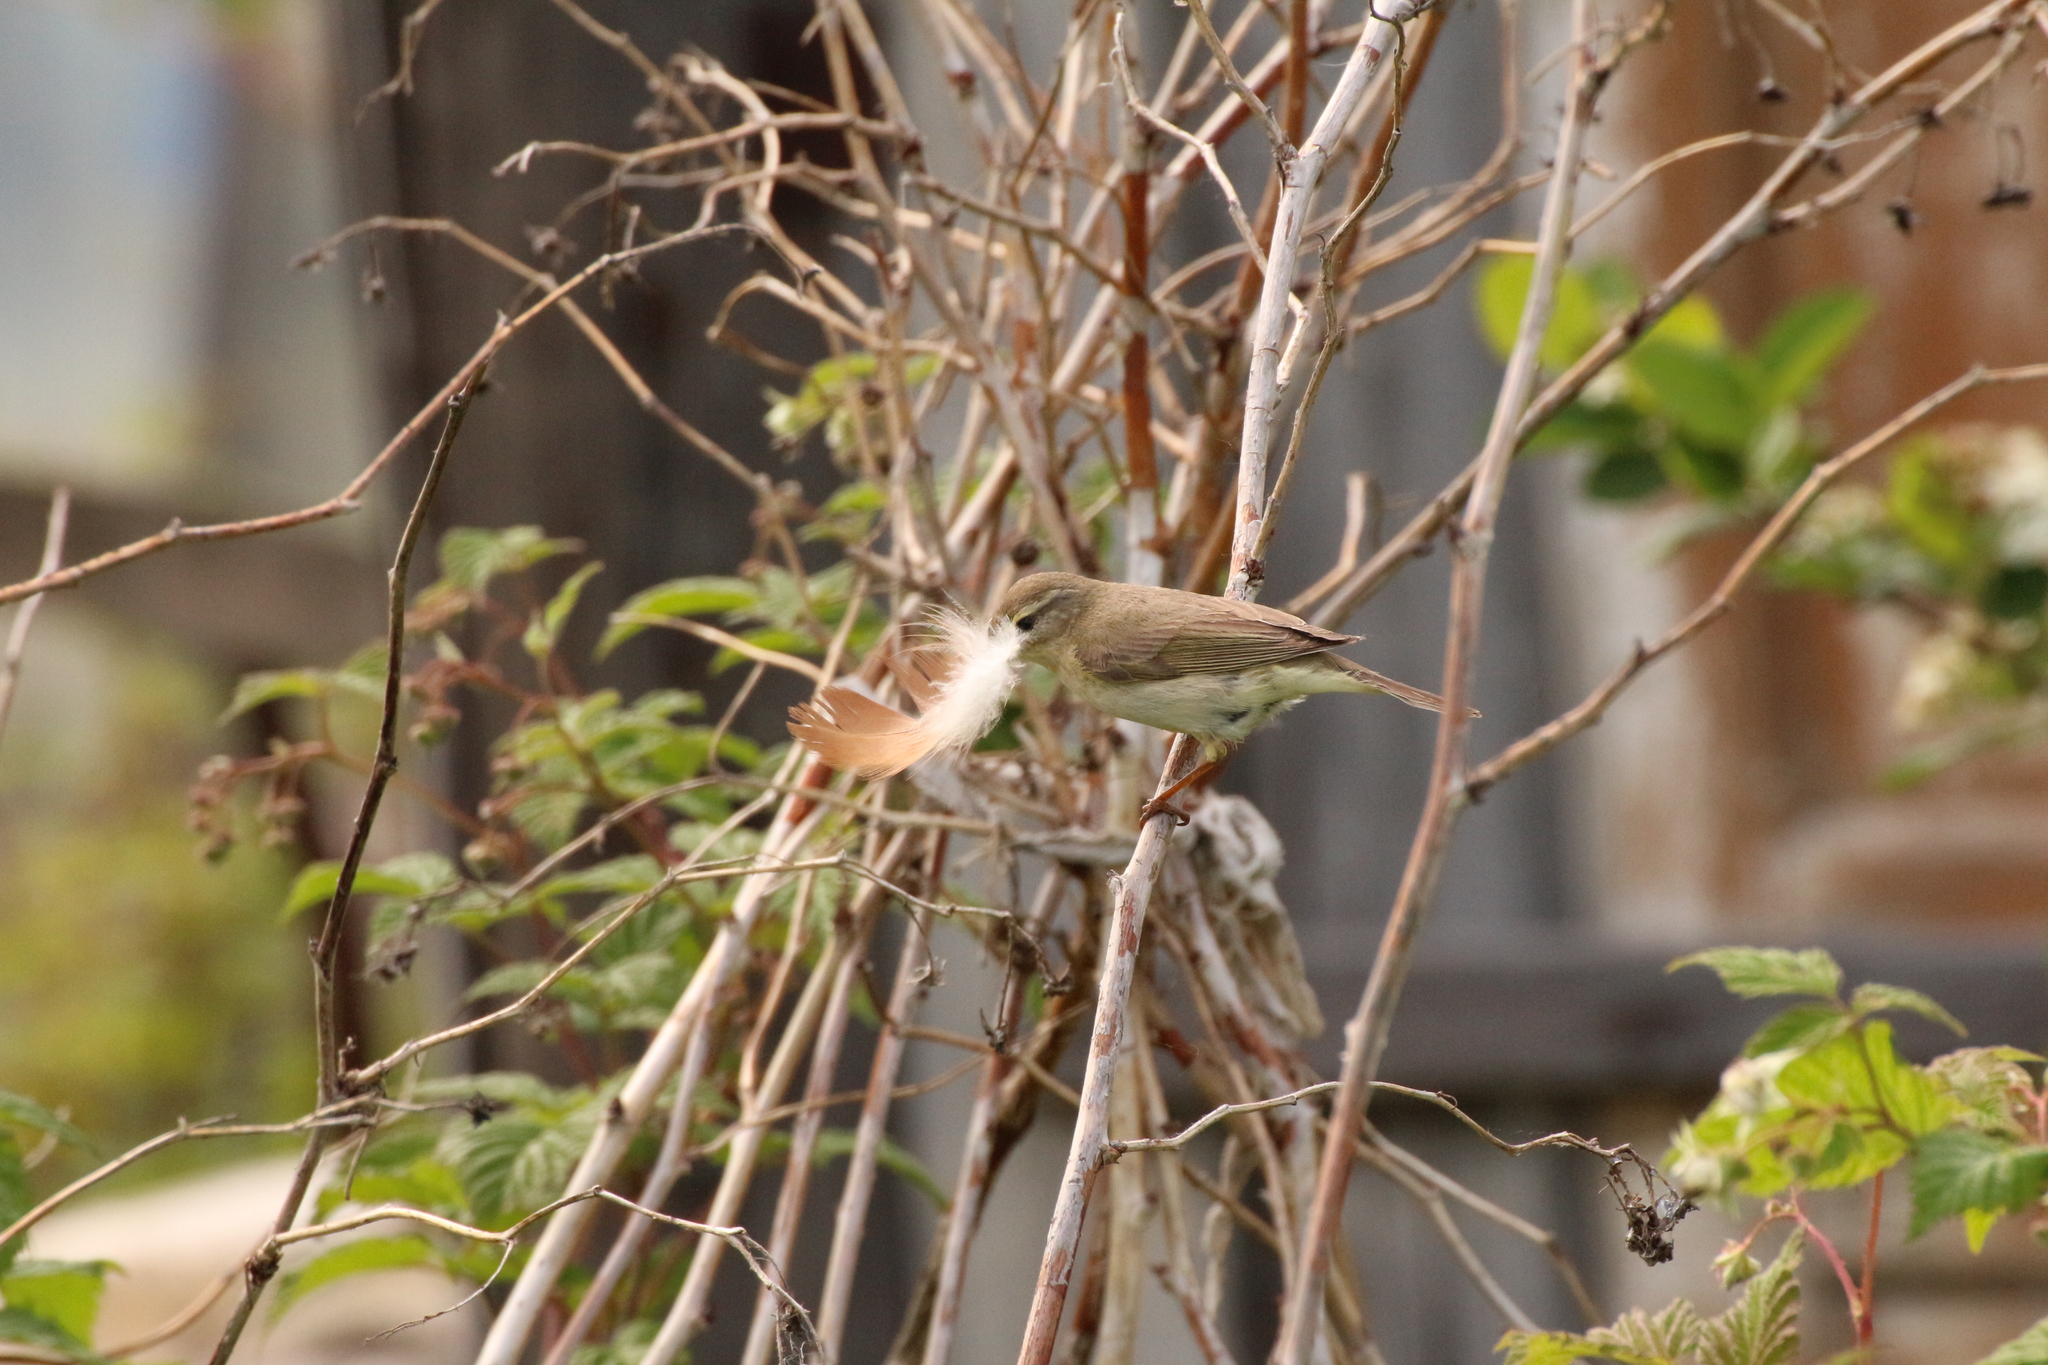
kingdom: Animalia
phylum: Chordata
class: Aves
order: Passeriformes
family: Phylloscopidae
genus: Phylloscopus
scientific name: Phylloscopus trochilus
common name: Willow warbler
